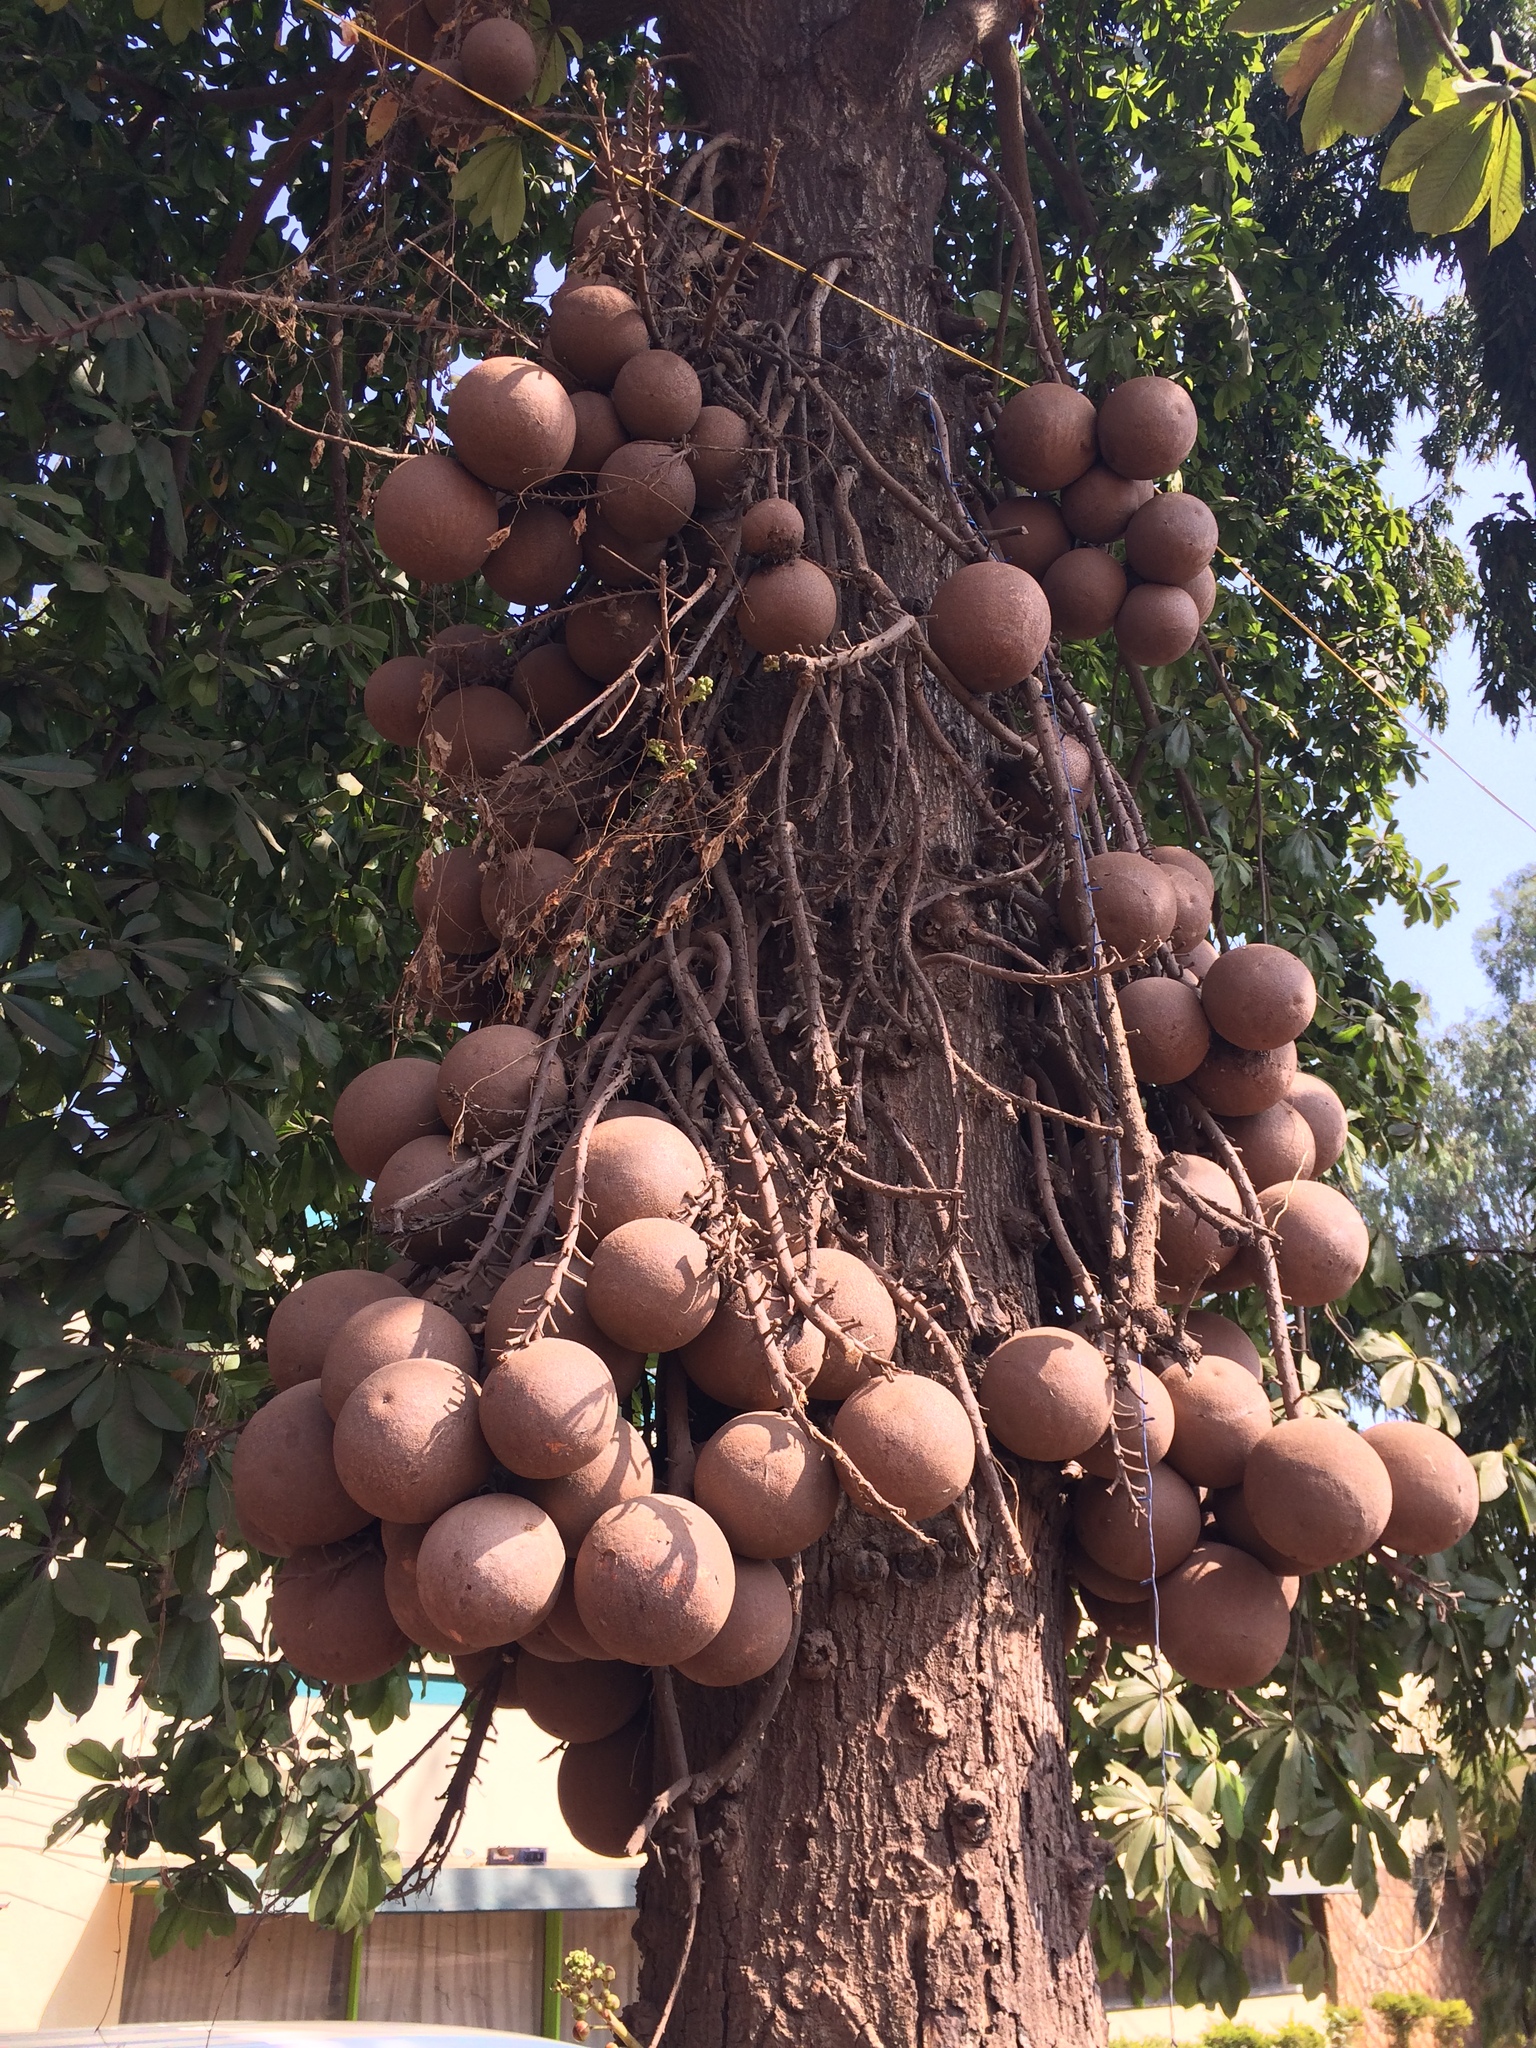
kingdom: Plantae
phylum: Tracheophyta
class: Magnoliopsida
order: Ericales
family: Lecythidaceae
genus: Couroupita
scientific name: Couroupita guianensis
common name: Cannonball tree
